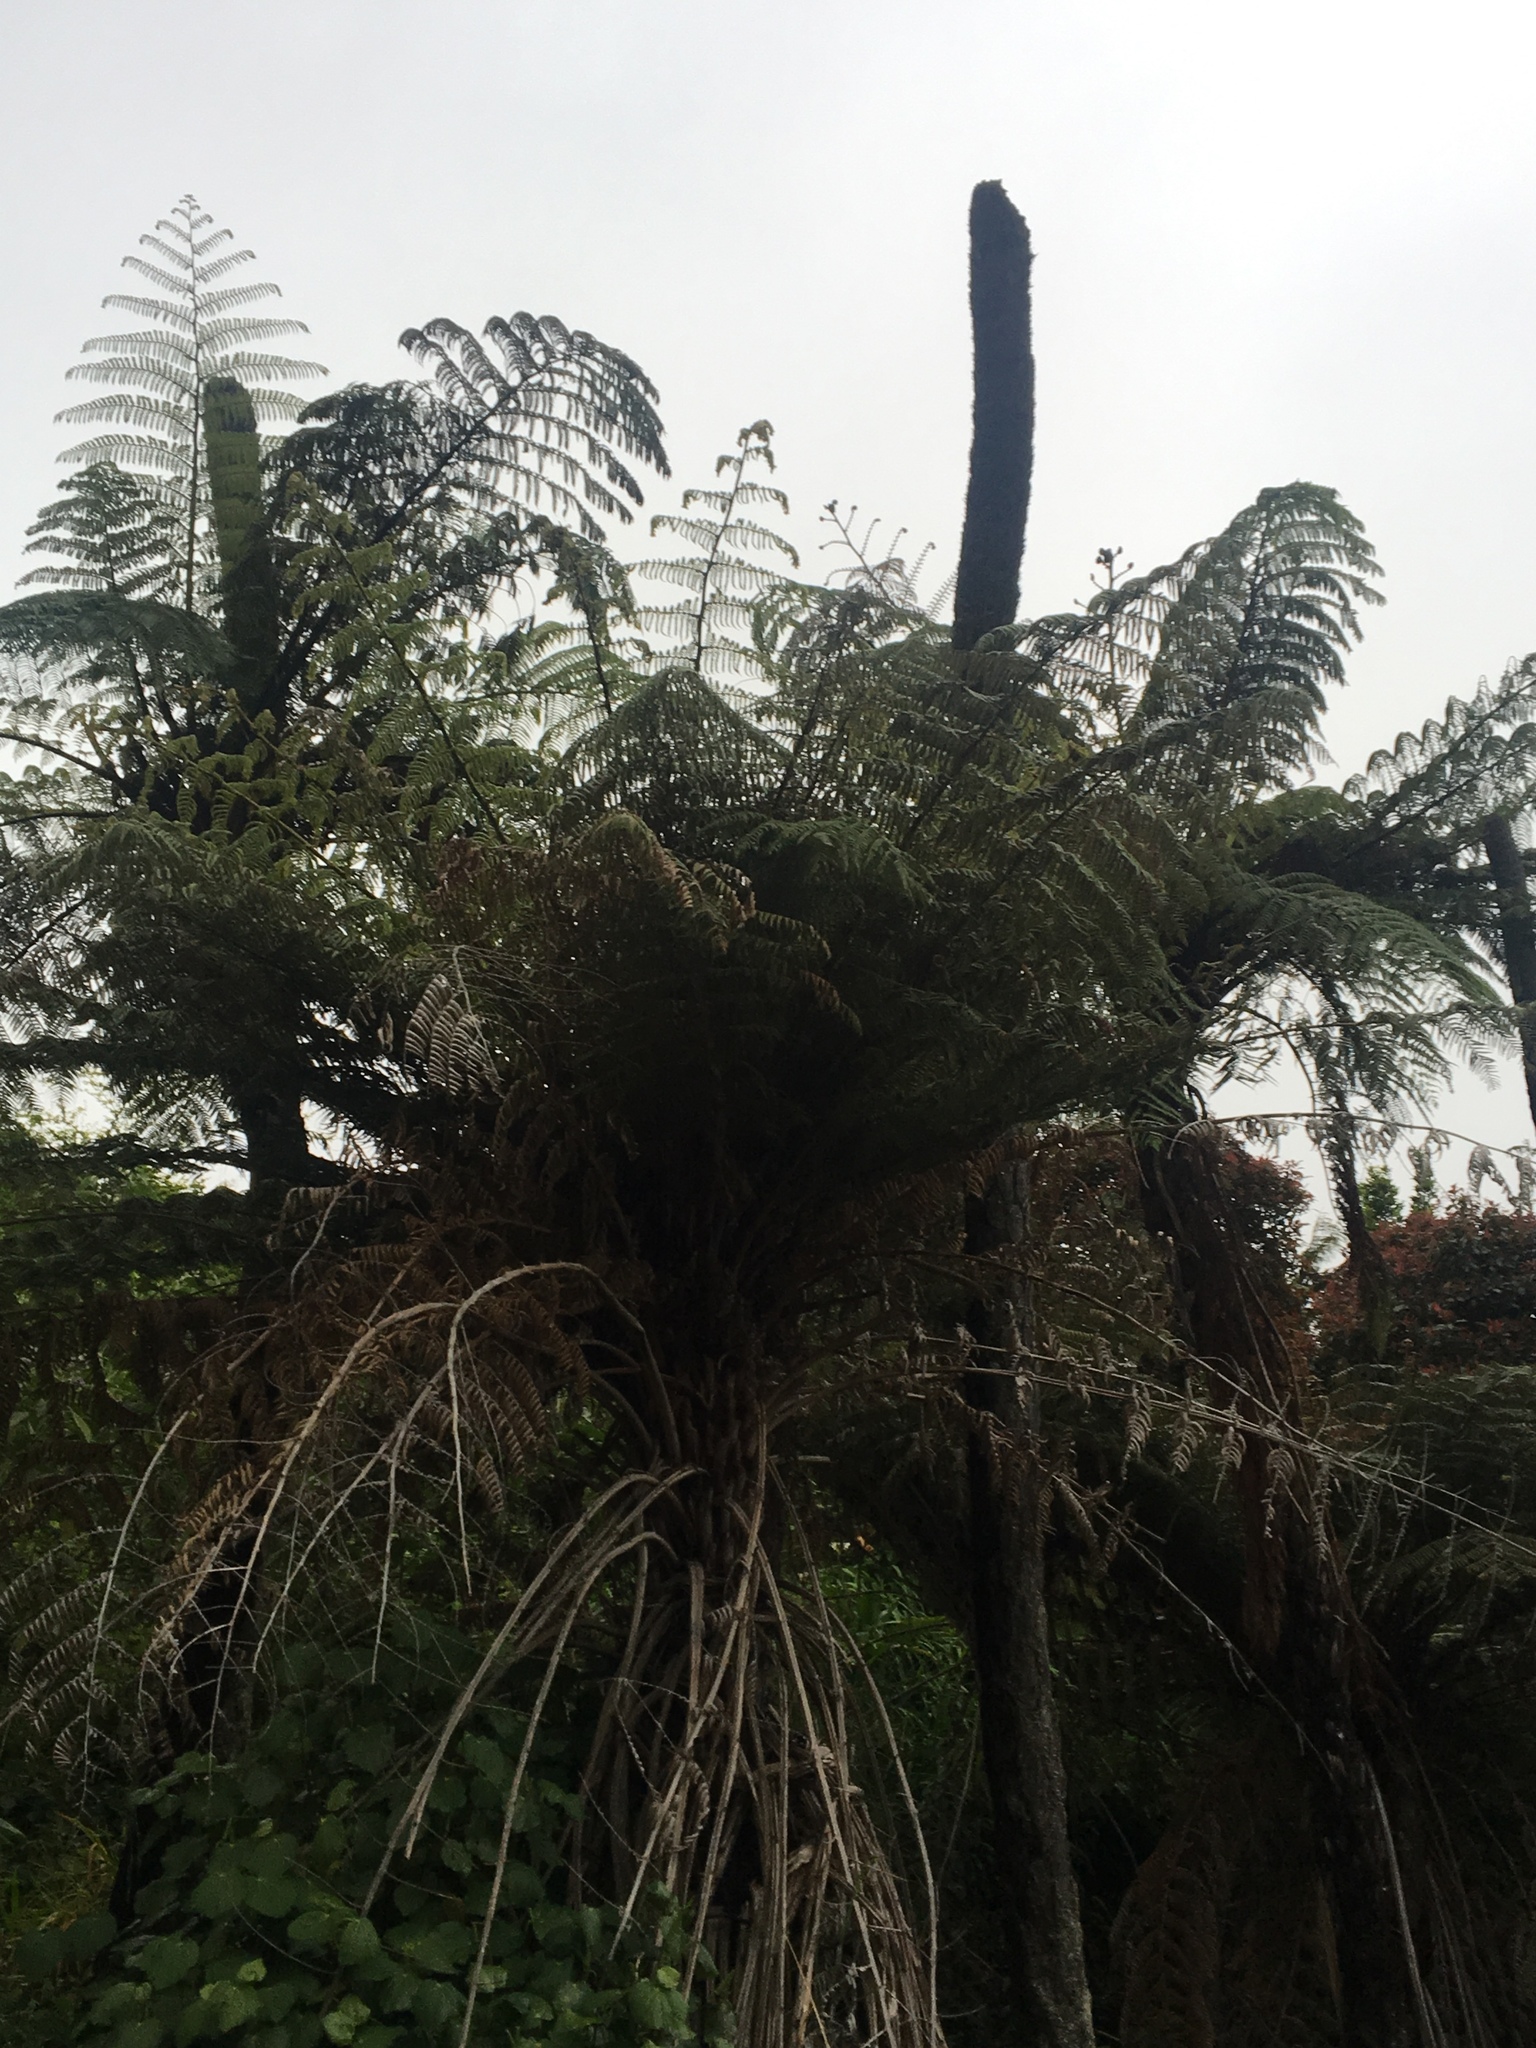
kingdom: Plantae
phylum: Tracheophyta
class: Polypodiopsida
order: Cyatheales
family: Cyatheaceae
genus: Alsophila
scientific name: Alsophila dealbata
